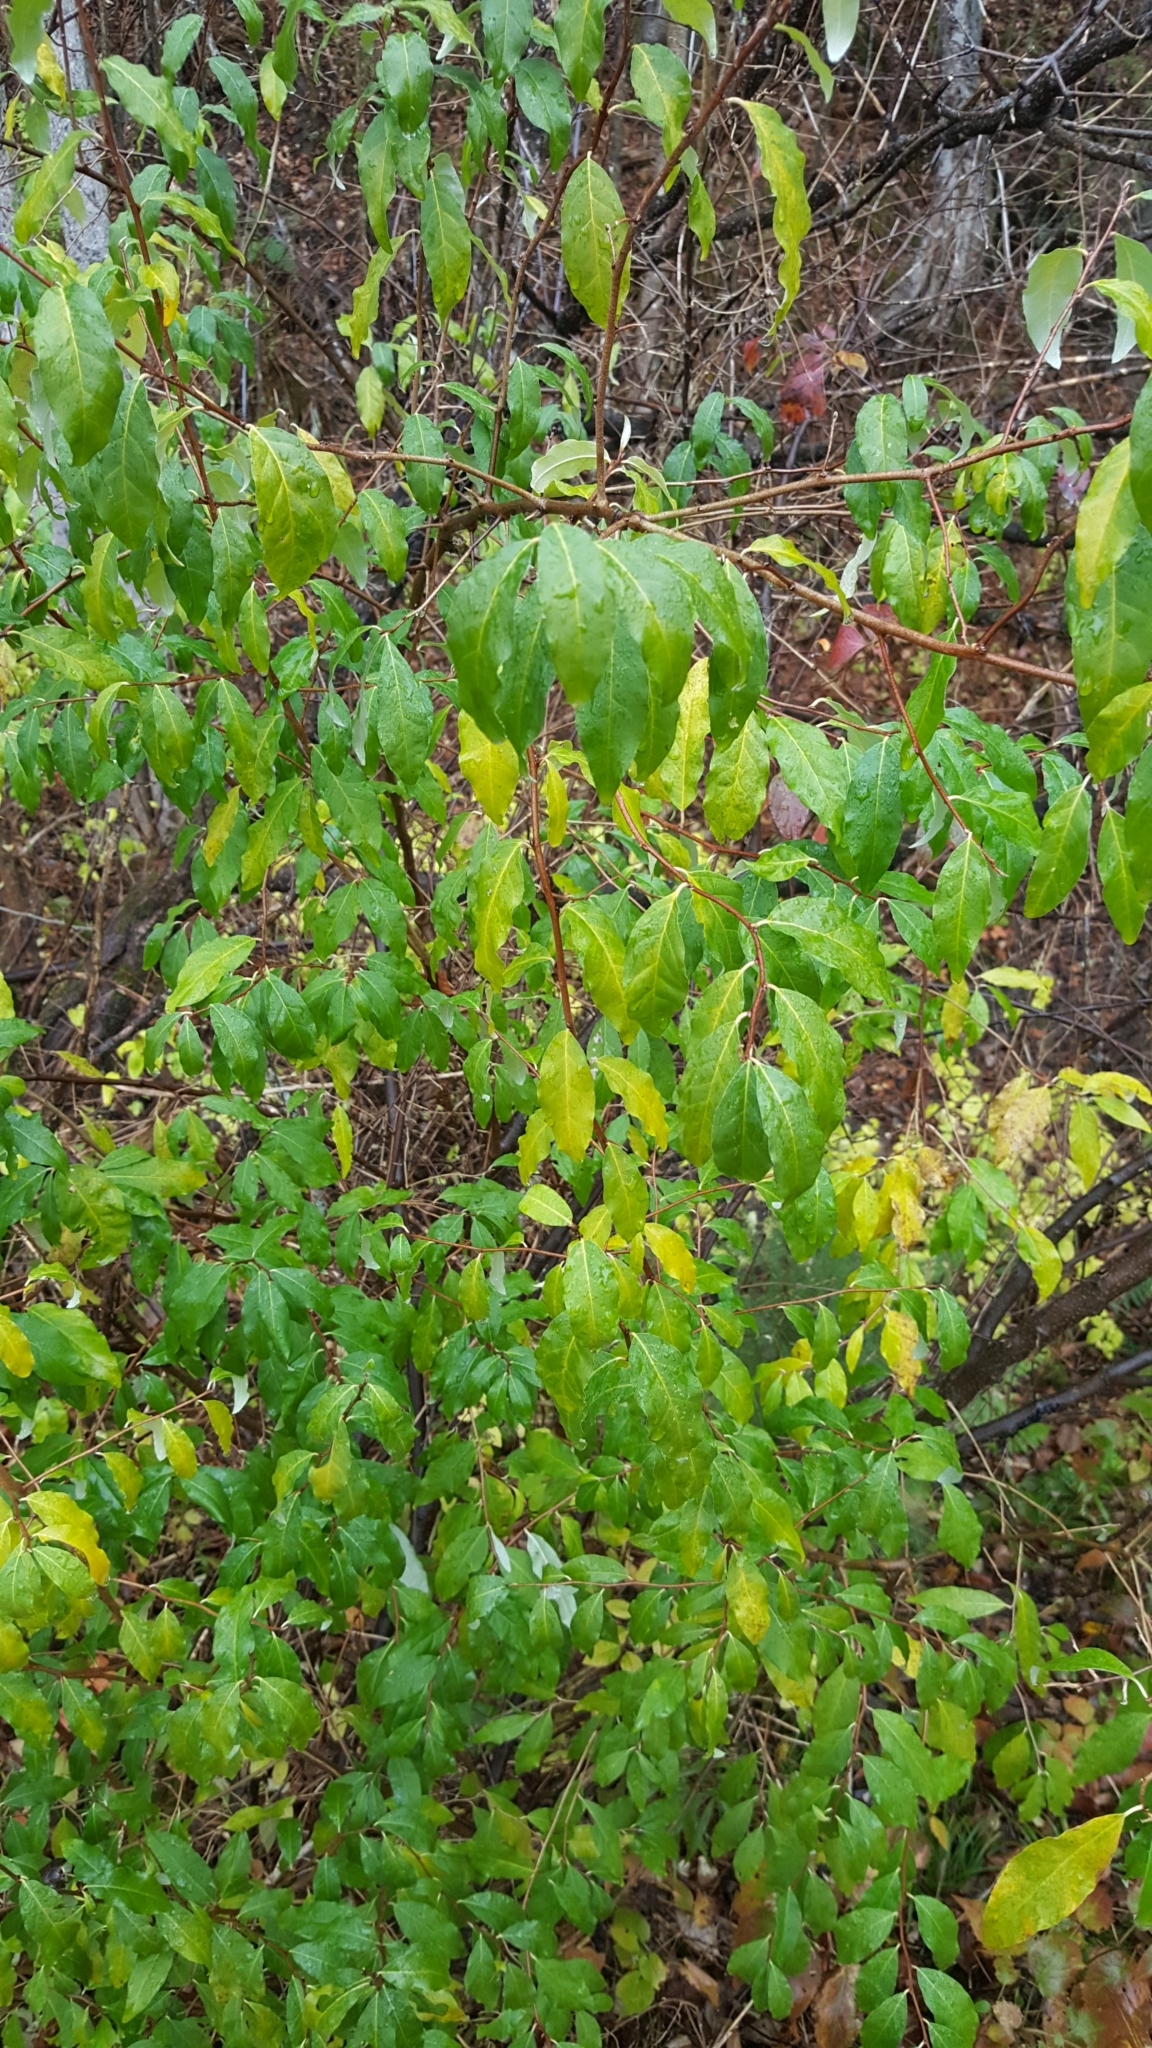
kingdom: Plantae
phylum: Tracheophyta
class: Magnoliopsida
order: Rosales
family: Elaeagnaceae
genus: Elaeagnus
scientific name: Elaeagnus umbellata
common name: Autumn olive
